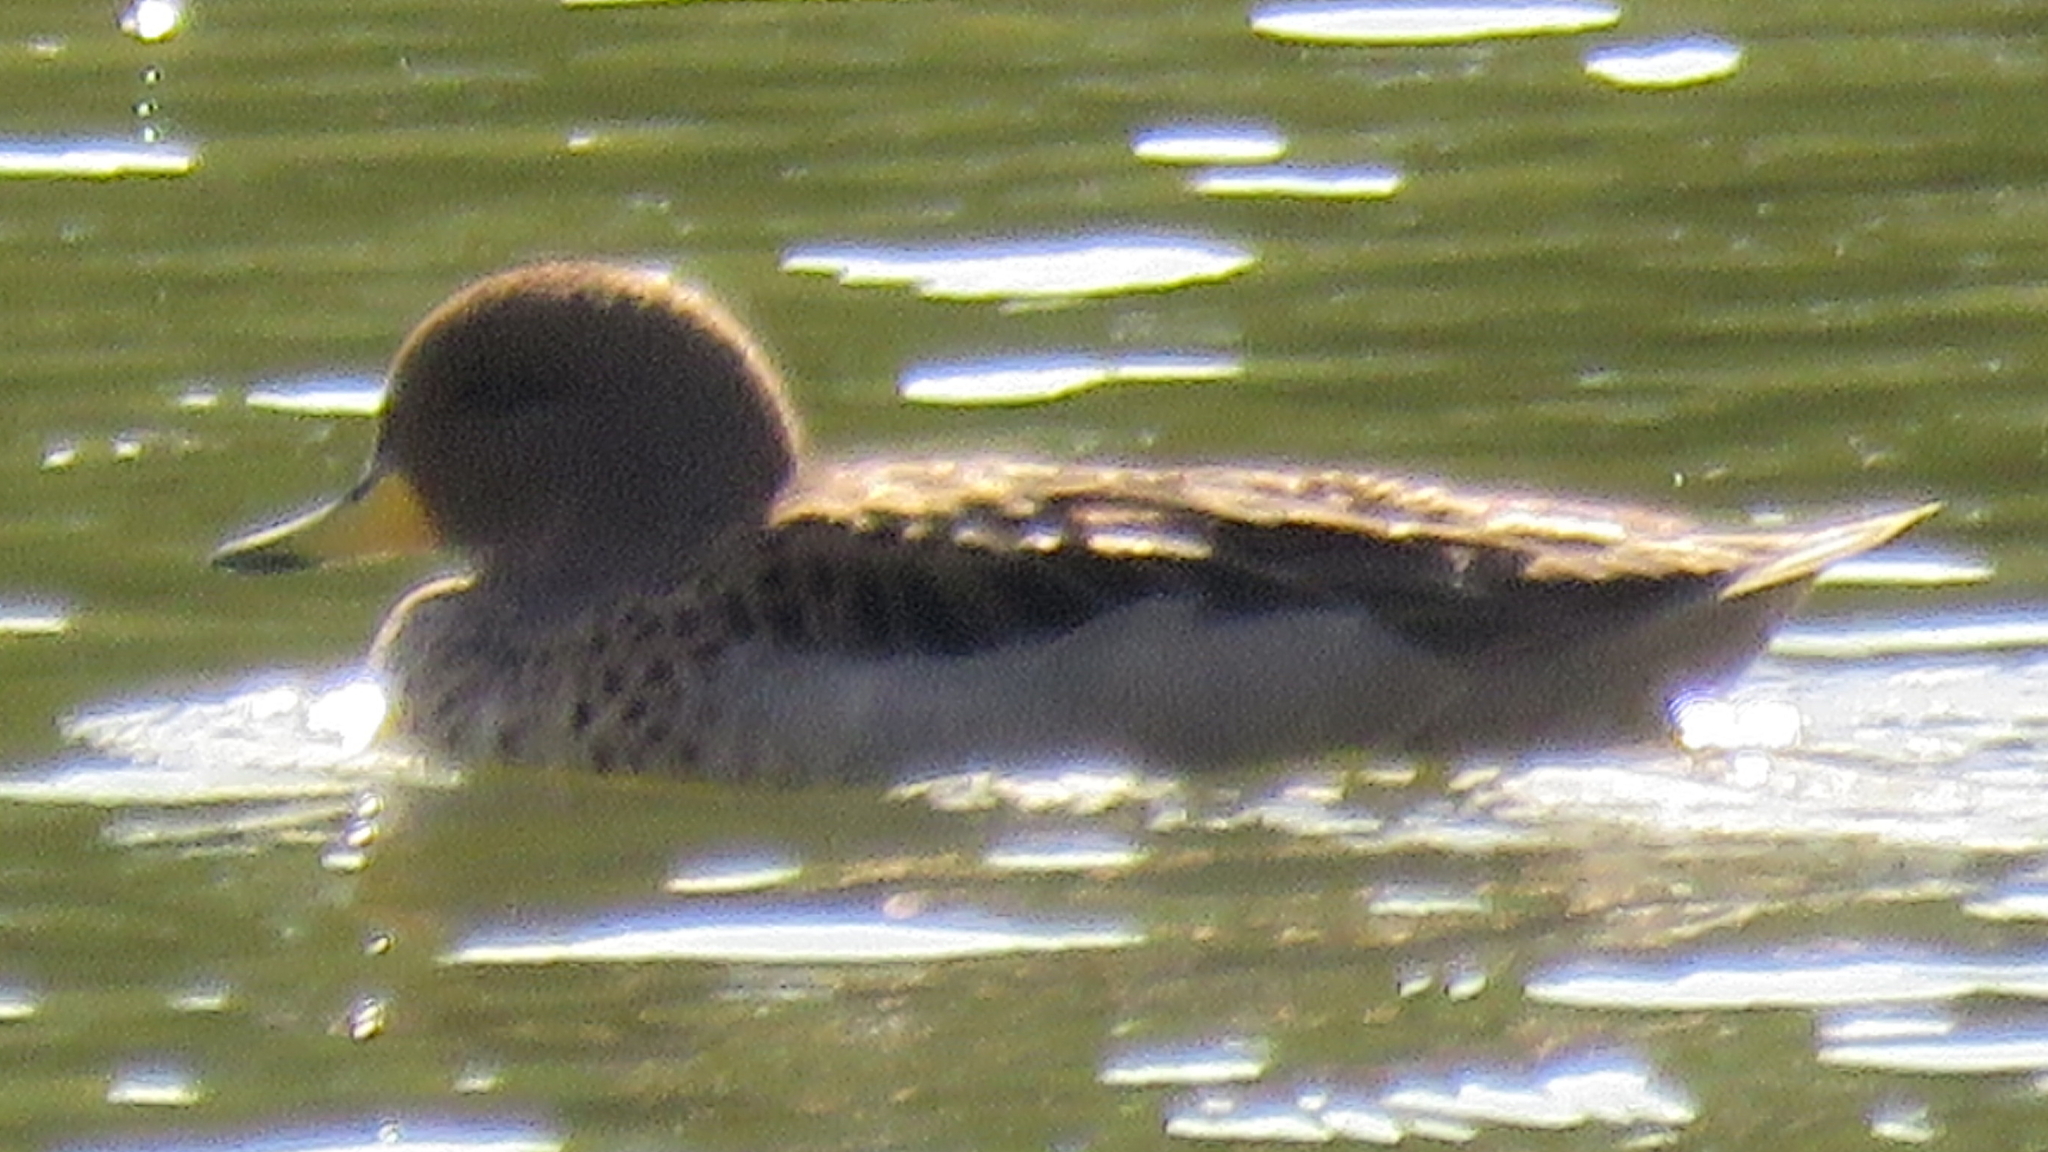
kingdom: Animalia
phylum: Chordata
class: Aves
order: Anseriformes
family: Anatidae
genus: Anas
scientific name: Anas flavirostris
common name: Yellow-billed teal
